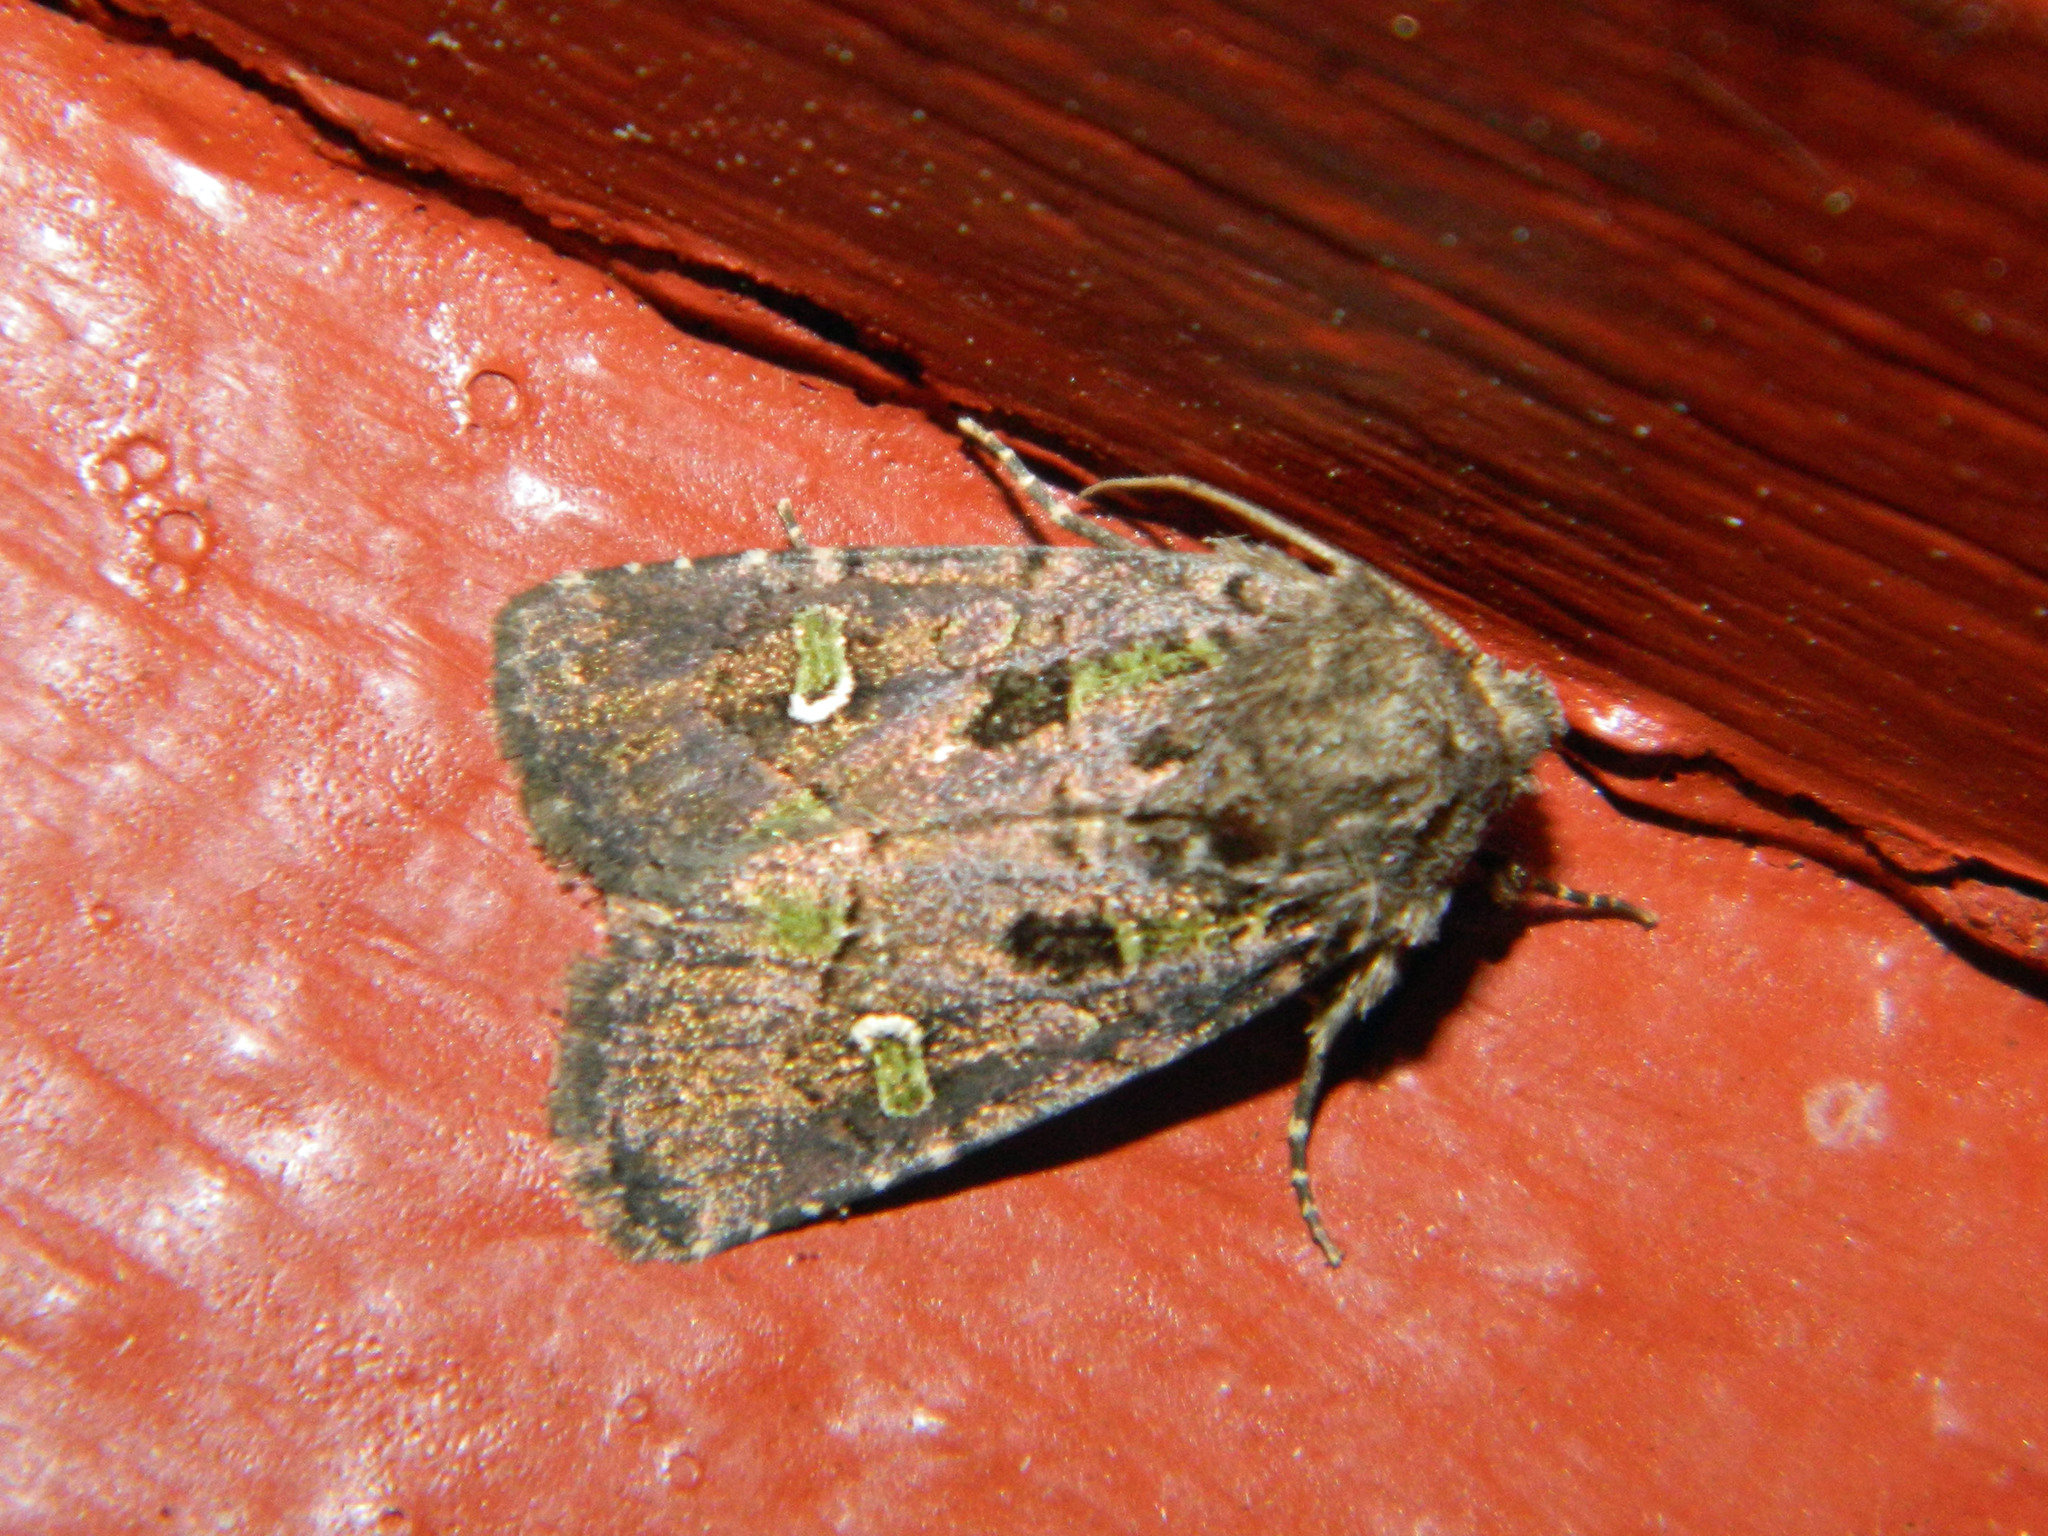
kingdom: Animalia
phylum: Arthropoda
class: Insecta
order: Lepidoptera
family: Noctuidae
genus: Lacinipolia
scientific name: Lacinipolia renigera
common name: Kidney-spotted minor
